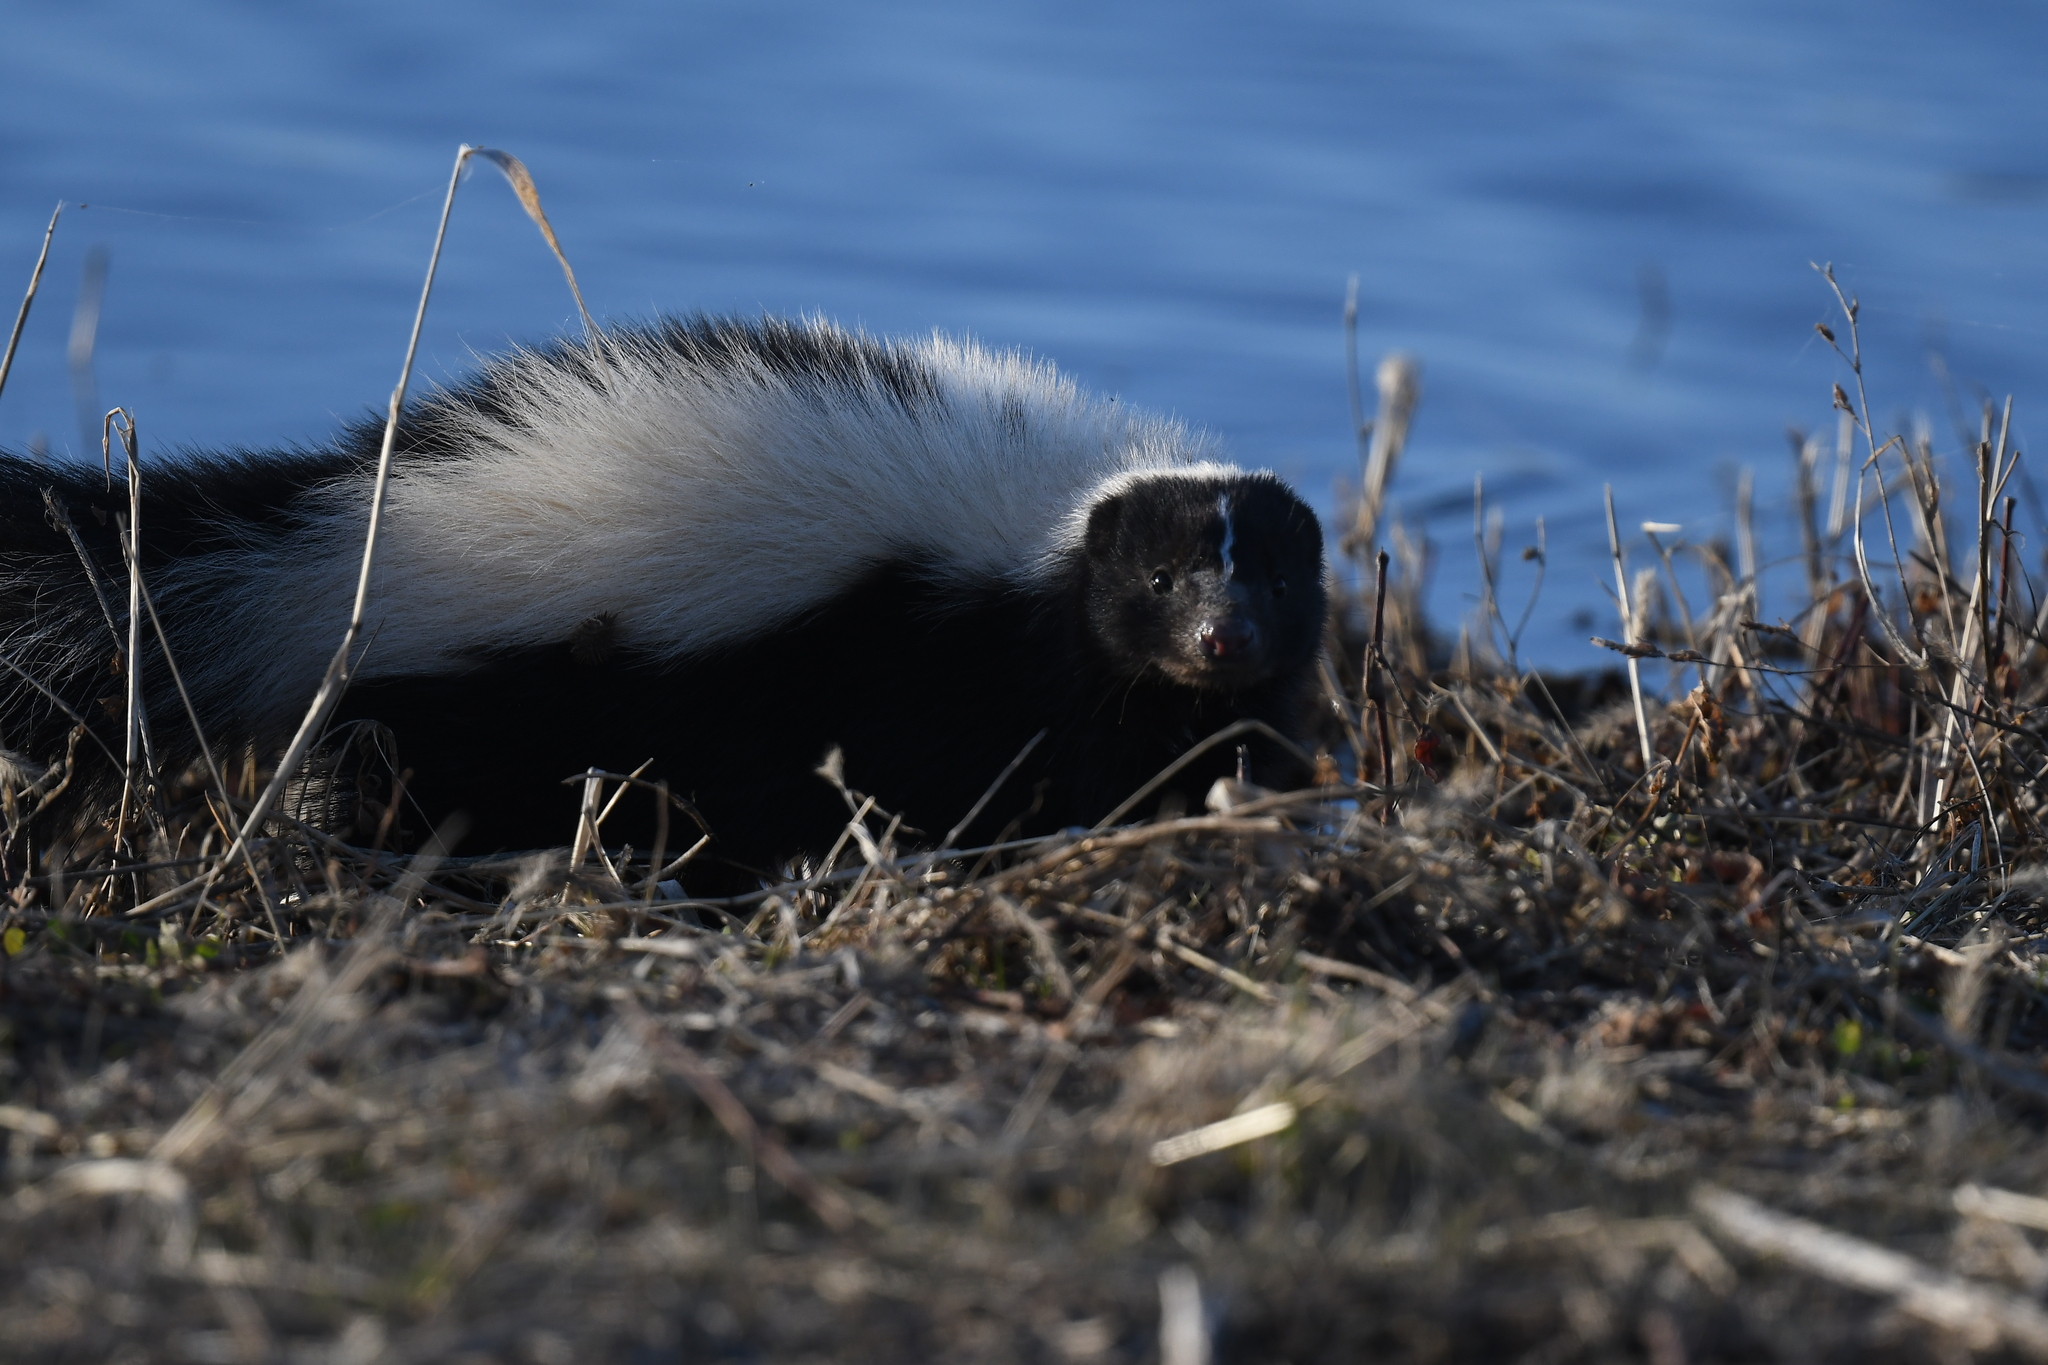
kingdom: Animalia
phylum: Chordata
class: Mammalia
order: Carnivora
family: Mephitidae
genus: Mephitis
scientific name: Mephitis mephitis
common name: Striped skunk
